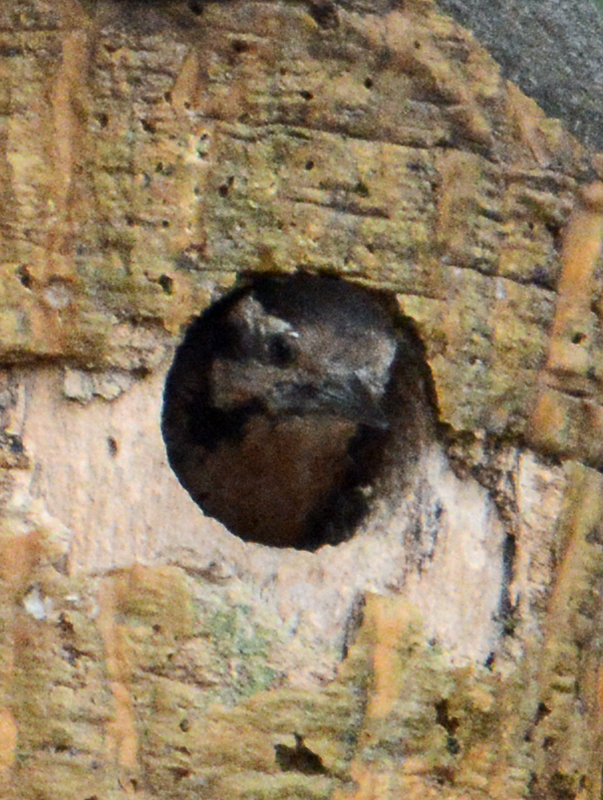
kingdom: Animalia
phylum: Chordata
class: Aves
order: Piciformes
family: Picidae
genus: Dryobates
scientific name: Dryobates scalaris
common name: Ladder-backed woodpecker
